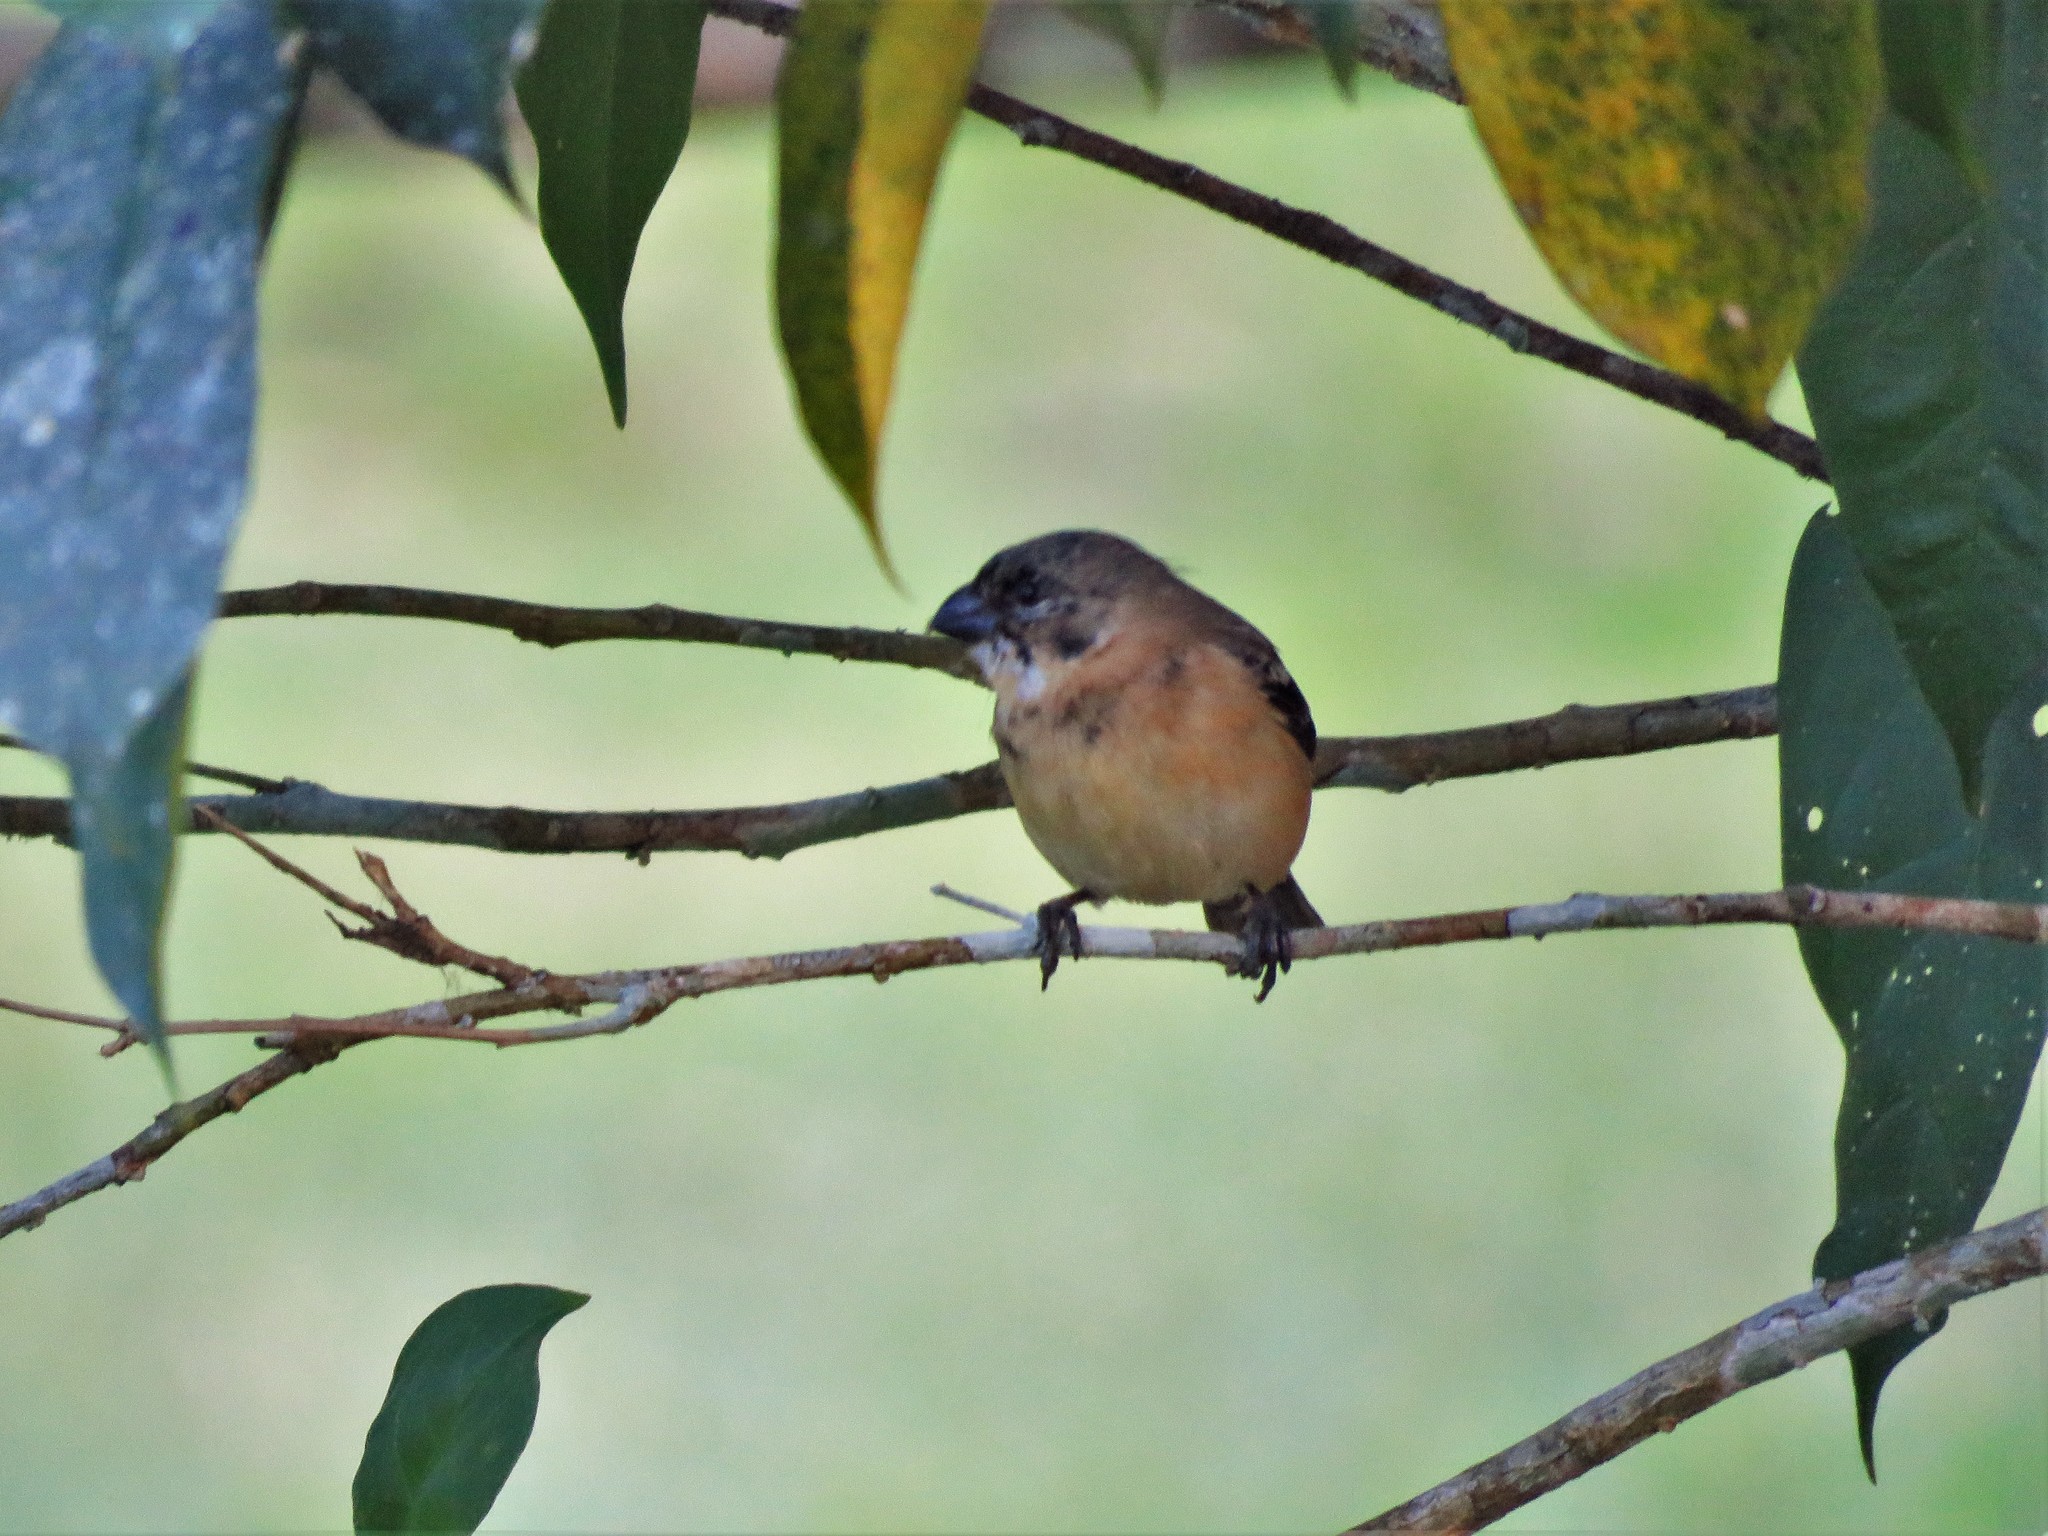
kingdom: Animalia
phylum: Chordata
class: Aves
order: Passeriformes
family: Thraupidae
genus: Sporophila
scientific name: Sporophila morelleti
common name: Morelet's seedeater
